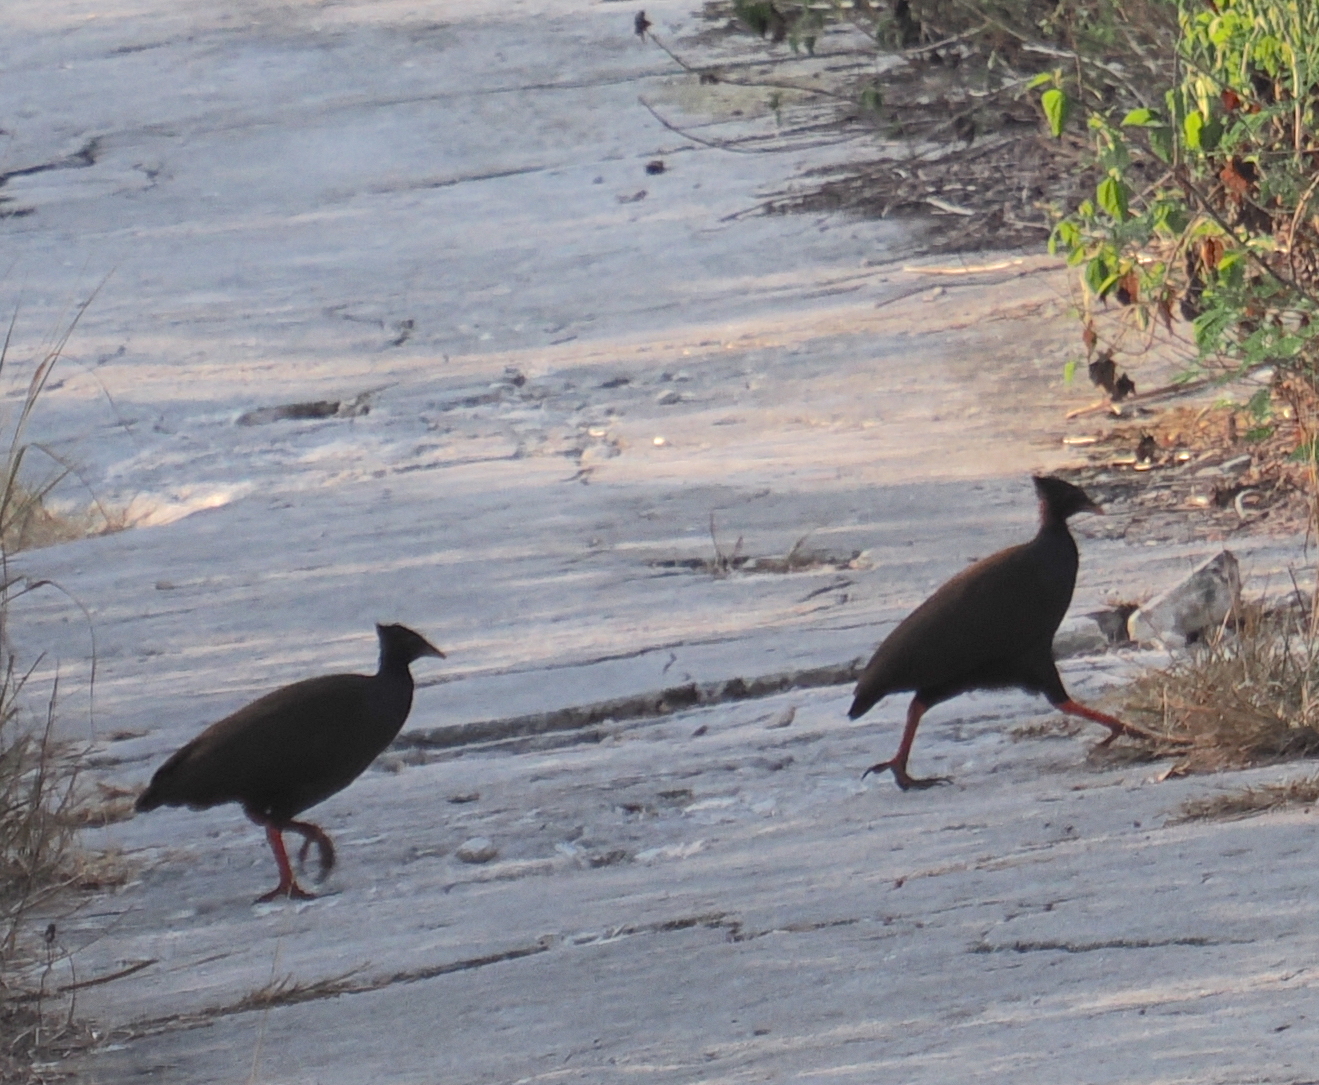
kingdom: Animalia
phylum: Chordata
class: Aves
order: Galliformes
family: Megapodiidae
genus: Megapodius
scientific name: Megapodius reinwardt
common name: Orange-footed scrubfowl
